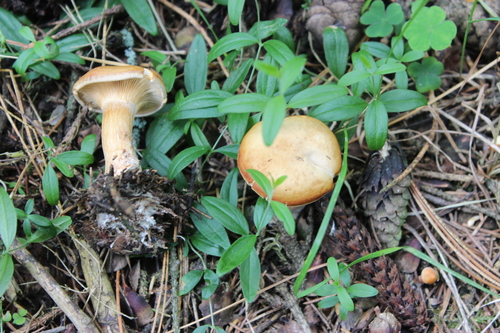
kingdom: Fungi
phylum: Basidiomycota
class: Agaricomycetes
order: Agaricales
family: Entolomataceae
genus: Clitopilus
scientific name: Clitopilus prunulus
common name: The miller
